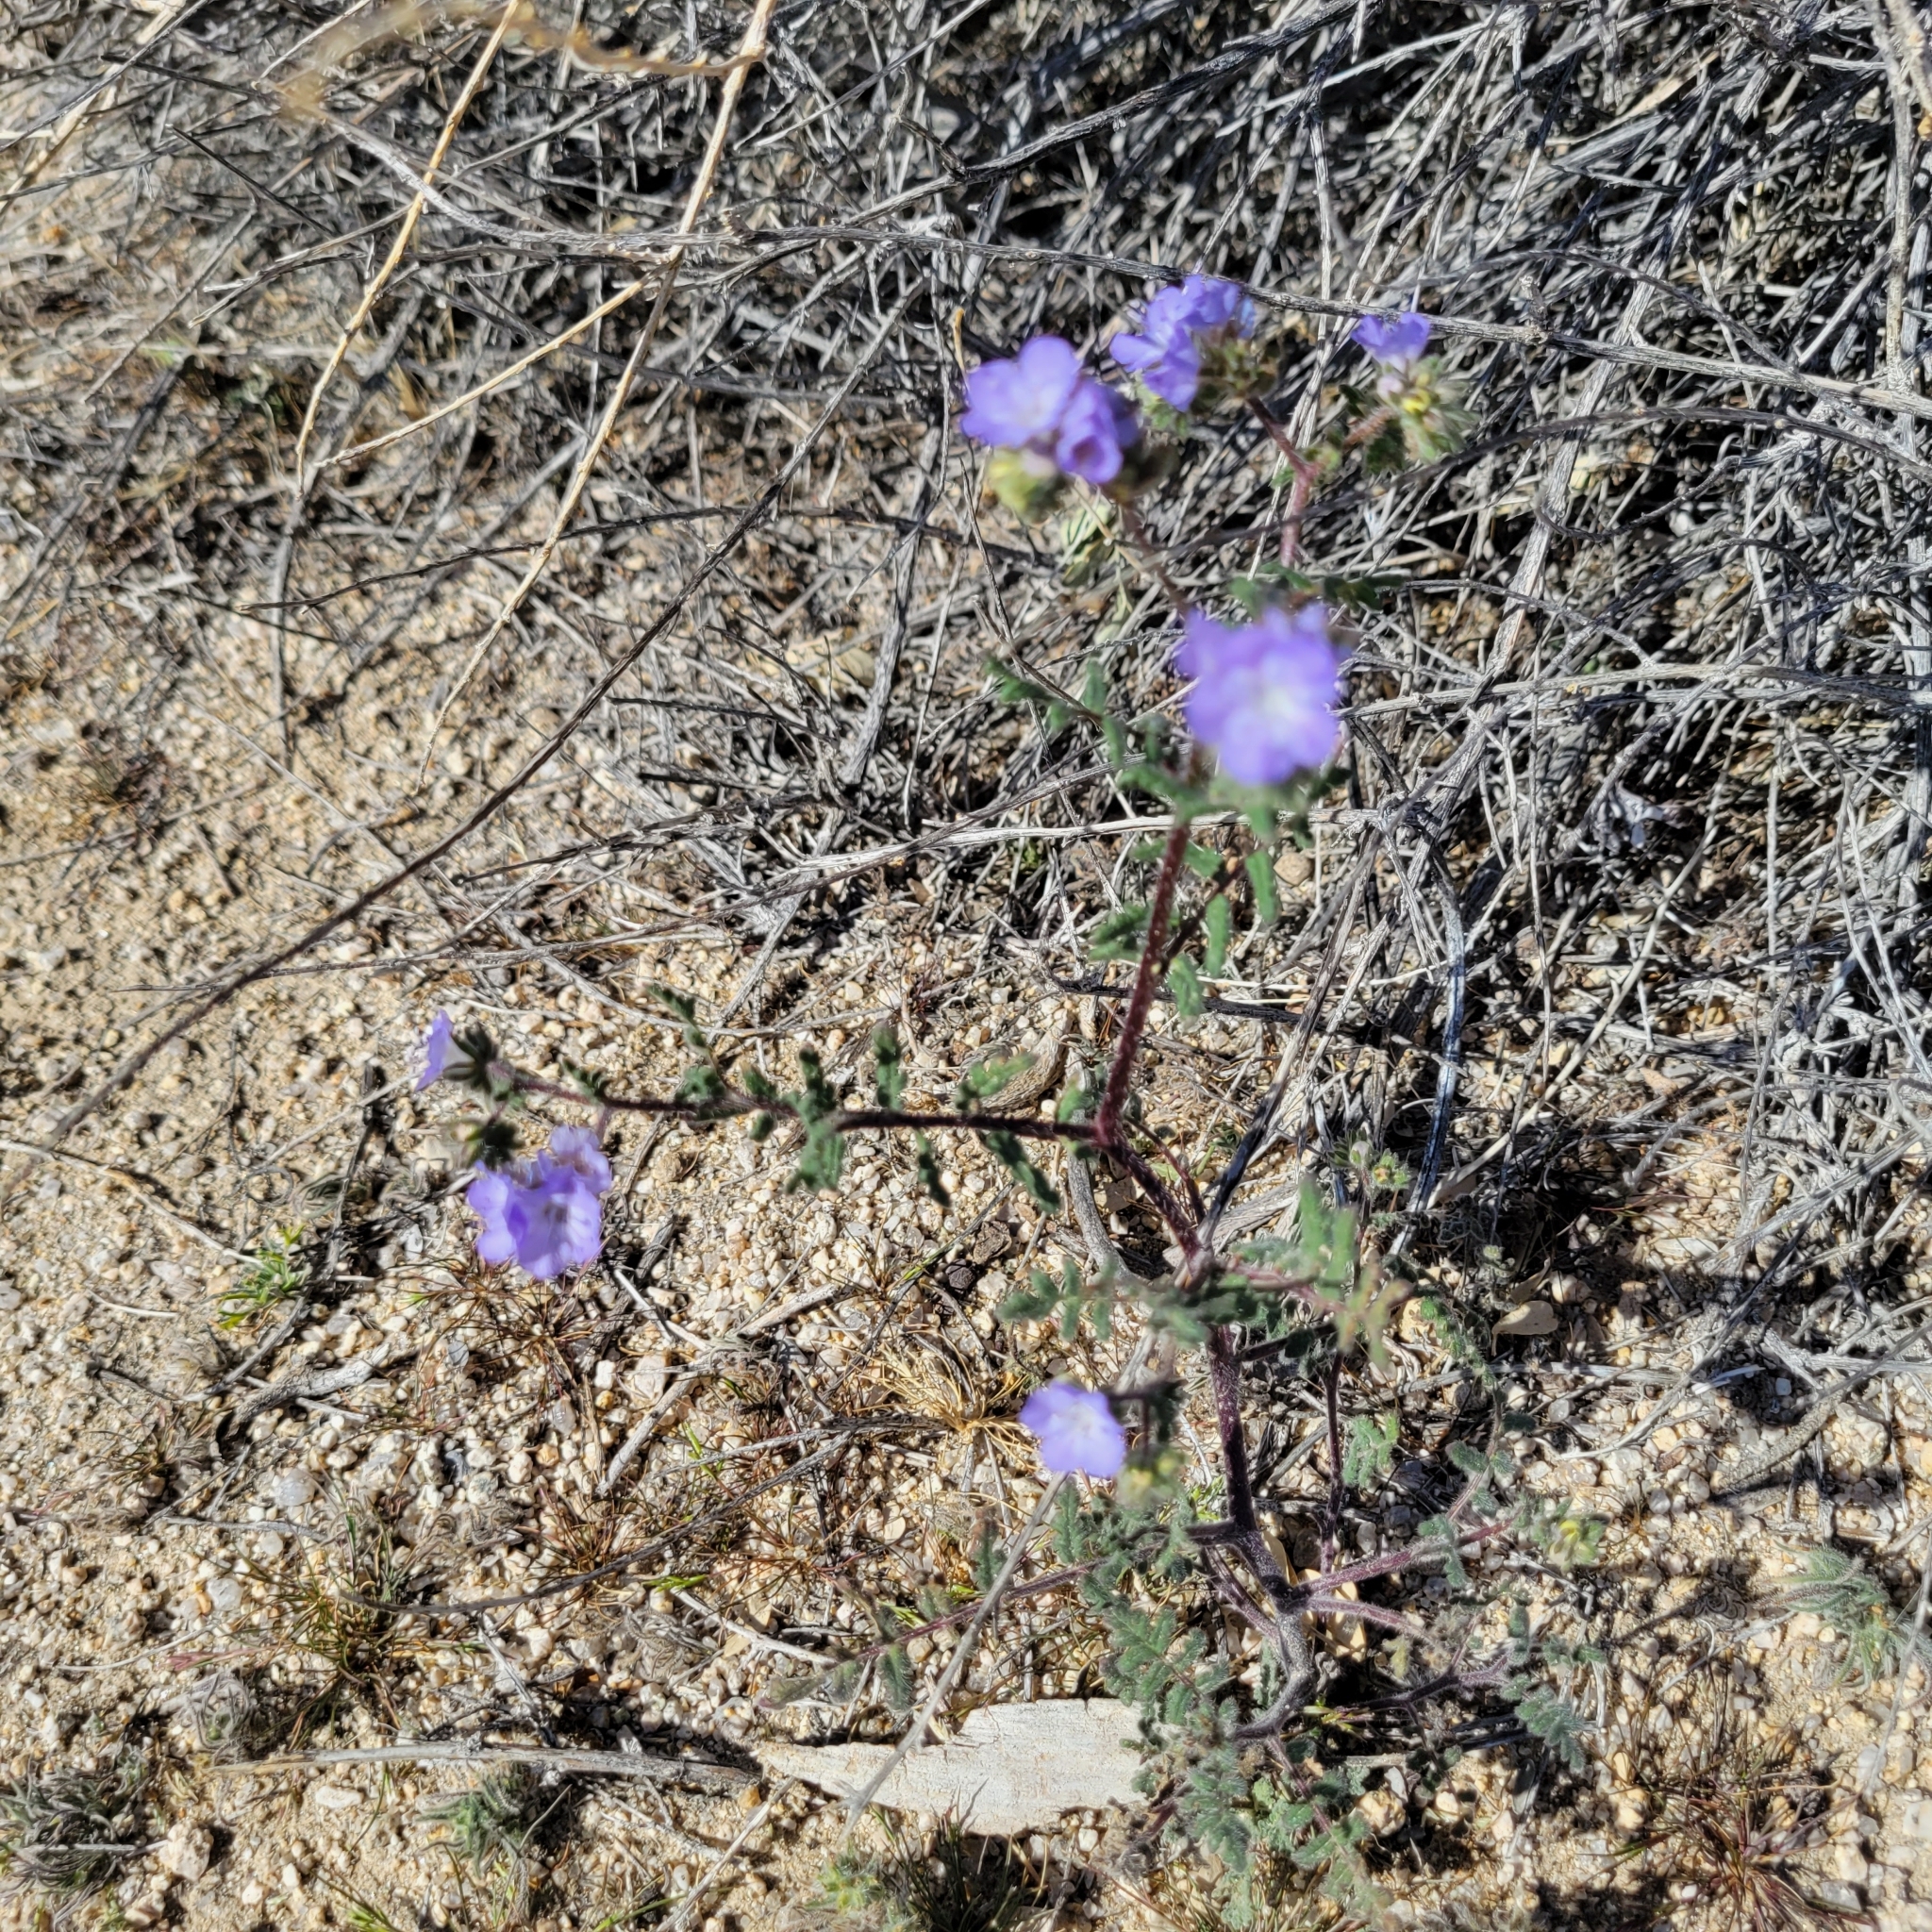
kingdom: Plantae
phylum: Tracheophyta
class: Magnoliopsida
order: Boraginales
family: Hydrophyllaceae
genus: Phacelia
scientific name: Phacelia distans
